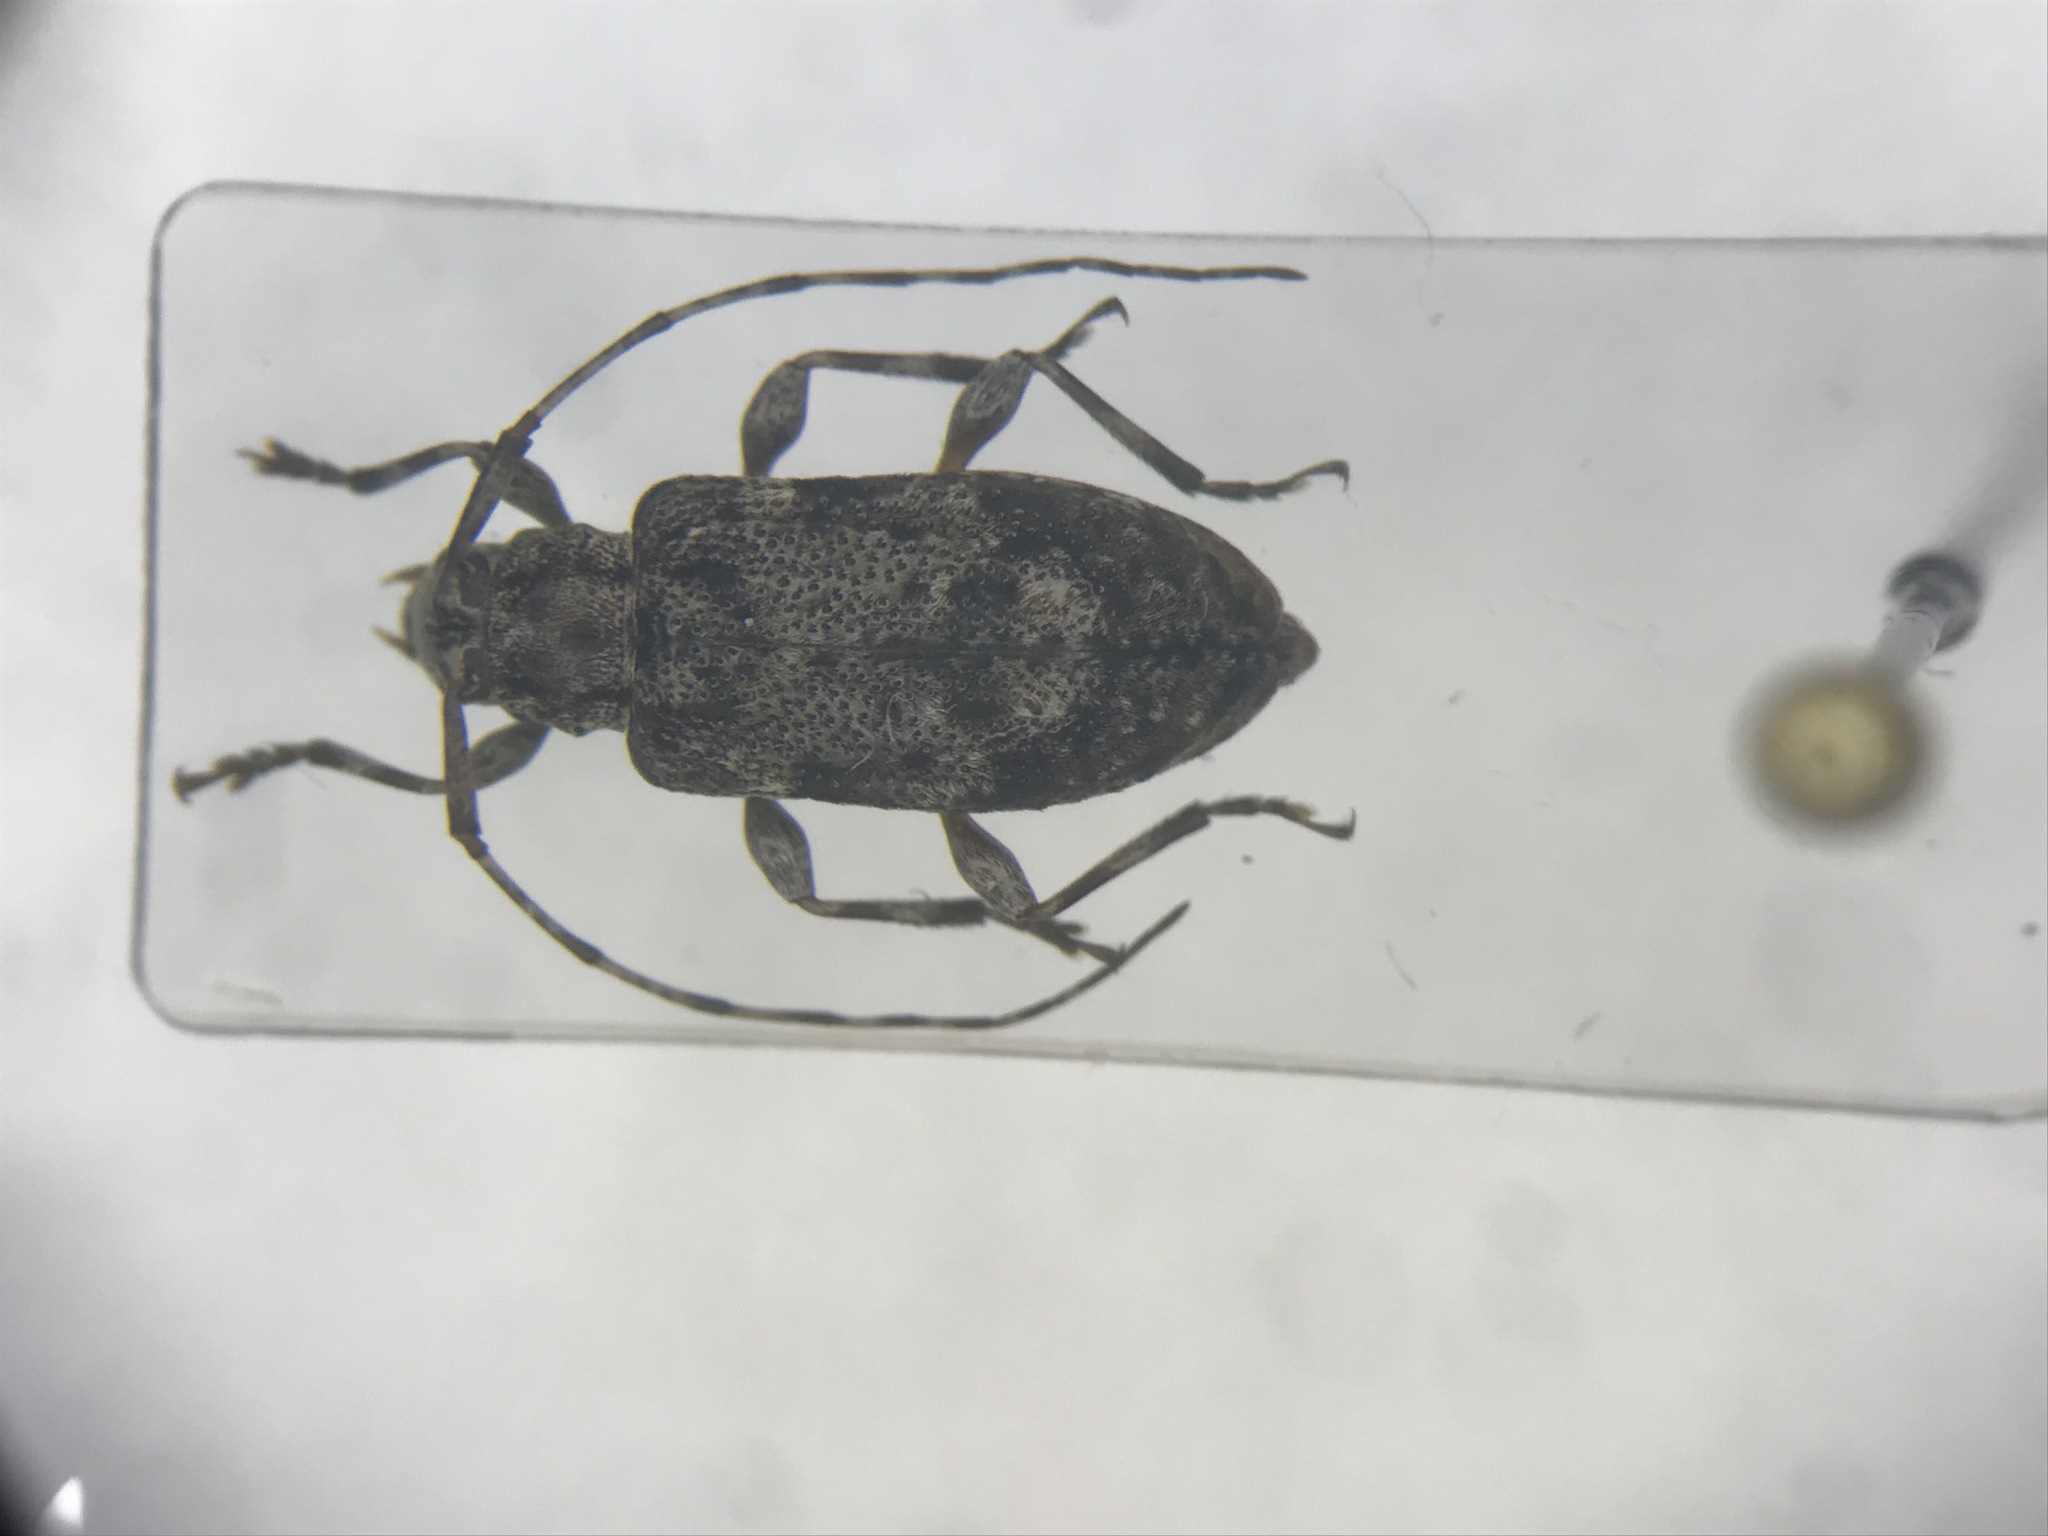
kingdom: Animalia
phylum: Arthropoda
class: Insecta
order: Coleoptera
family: Cerambycidae
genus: Astylopsis
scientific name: Astylopsis sexguttata
